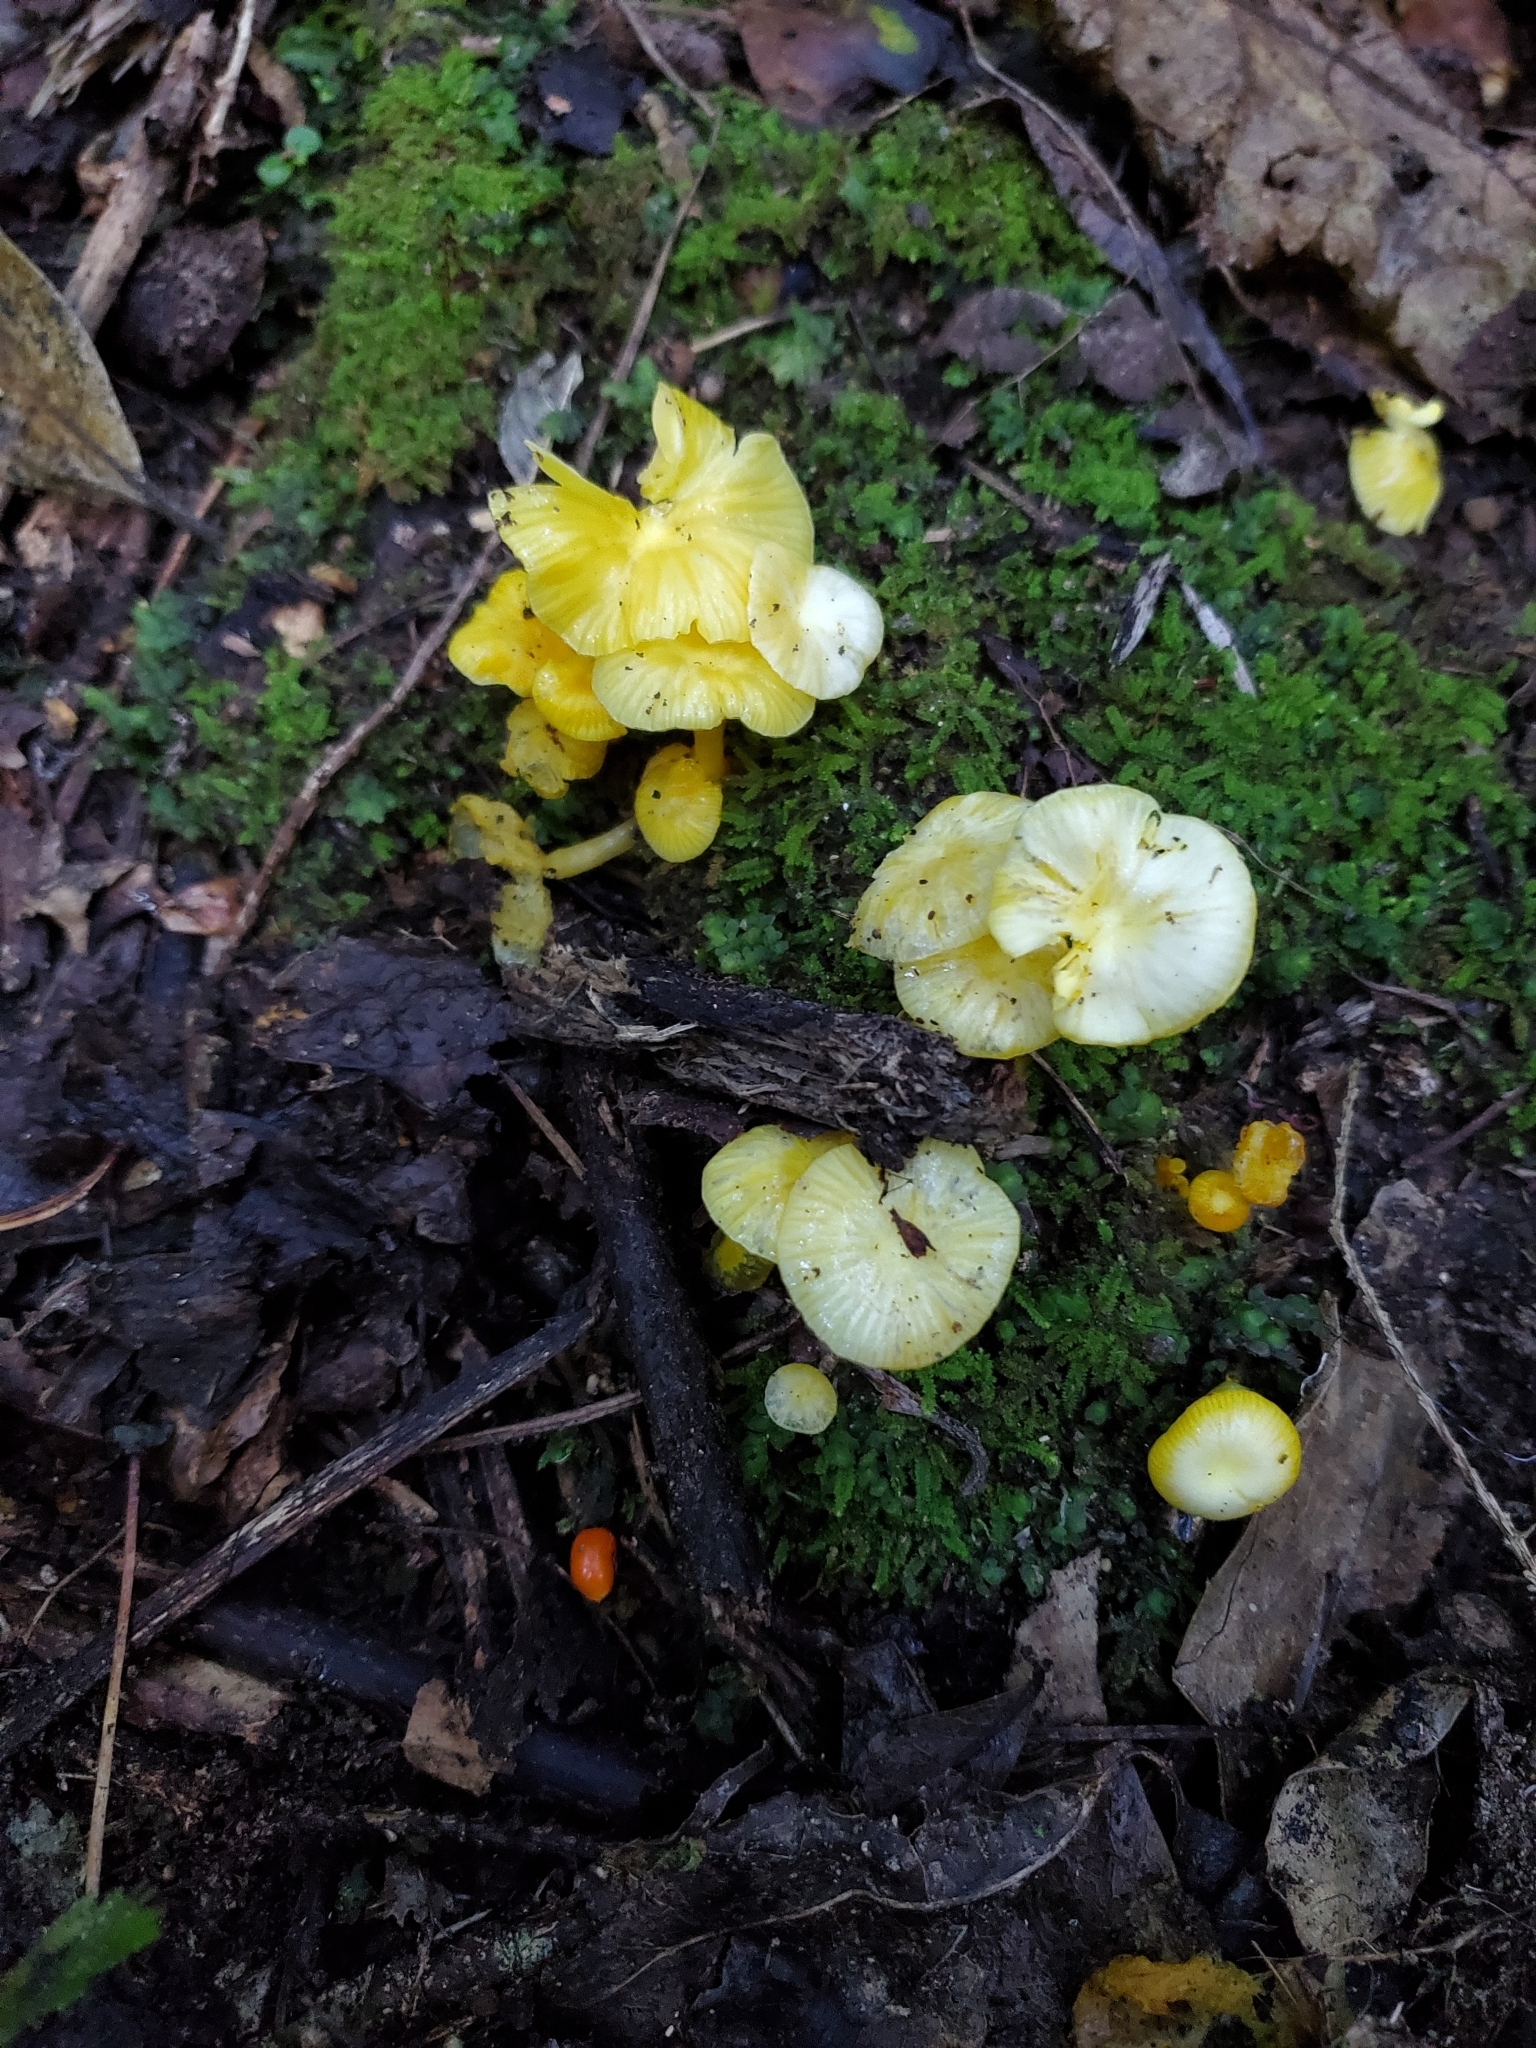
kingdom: Fungi
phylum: Basidiomycota
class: Agaricomycetes
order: Agaricales
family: Hygrophoraceae
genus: Gloioxanthomyces
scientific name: Gloioxanthomyces
